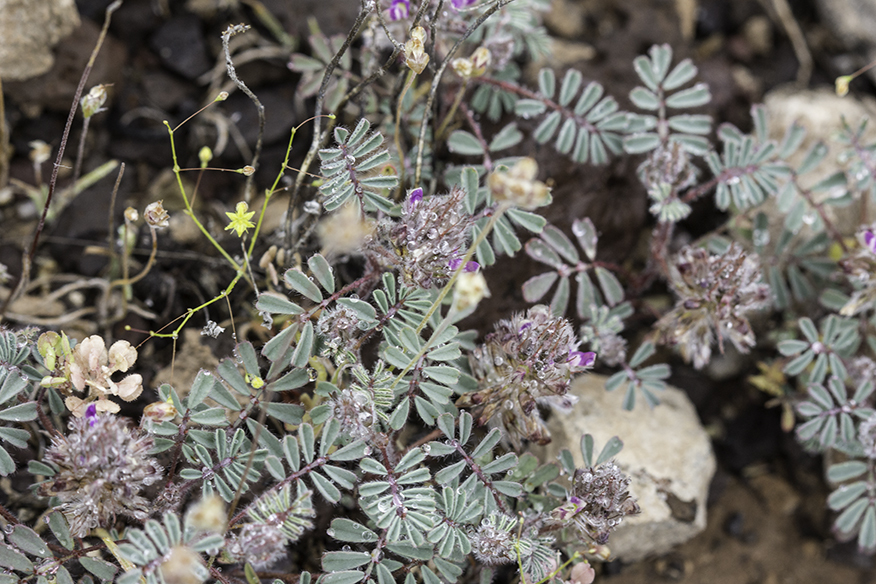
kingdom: Plantae
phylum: Tracheophyta
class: Magnoliopsida
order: Fabales
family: Fabaceae
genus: Dalea
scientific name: Dalea mollis
